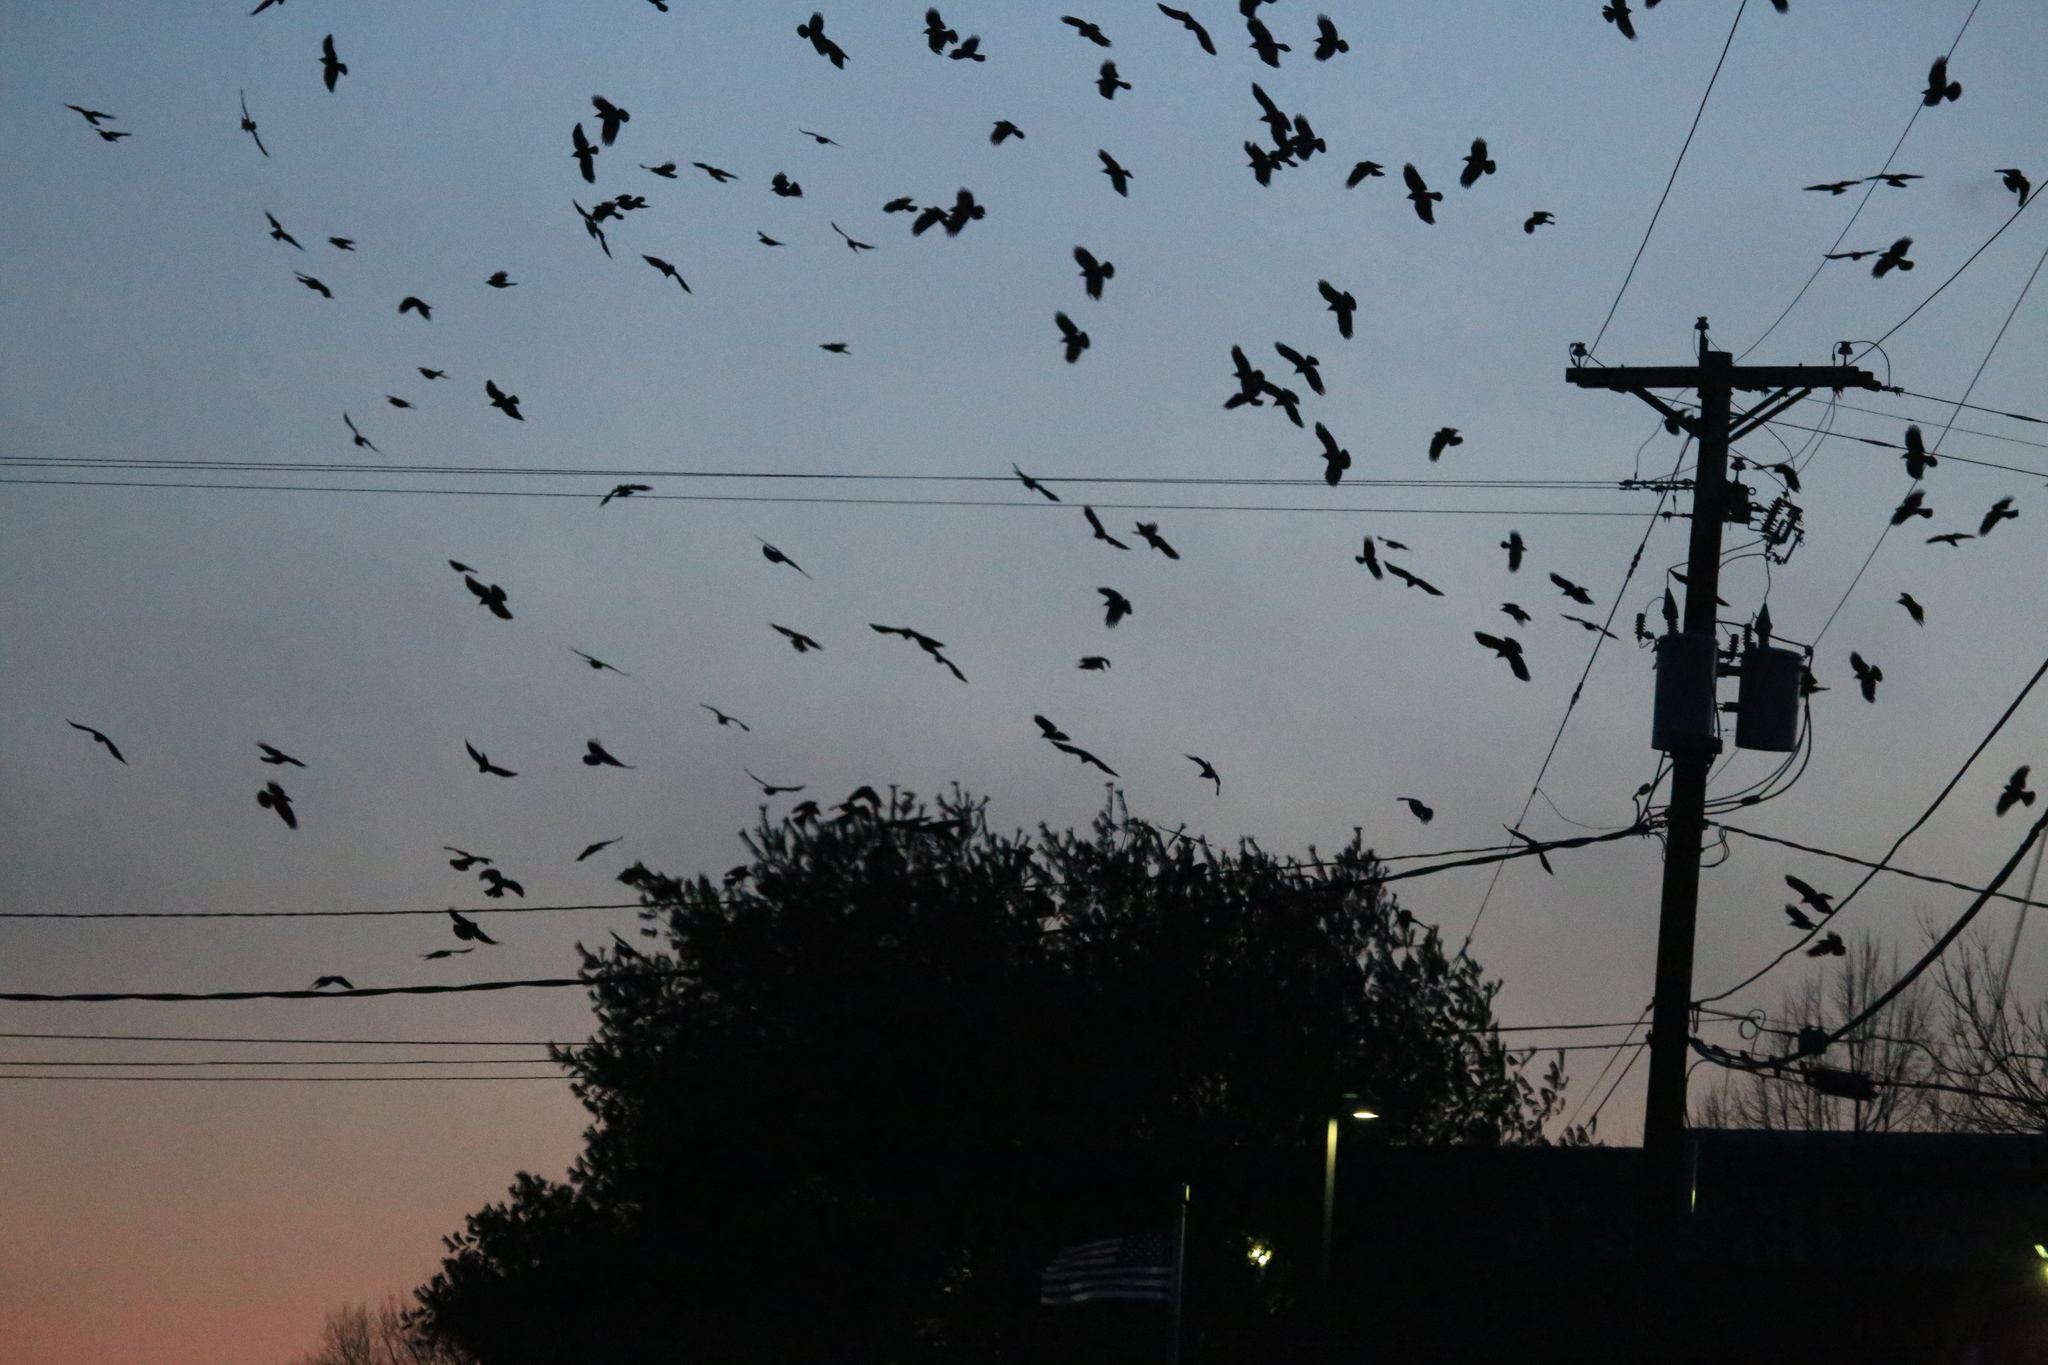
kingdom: Animalia
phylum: Chordata
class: Aves
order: Passeriformes
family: Corvidae
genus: Corvus
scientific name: Corvus brachyrhynchos
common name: American crow
